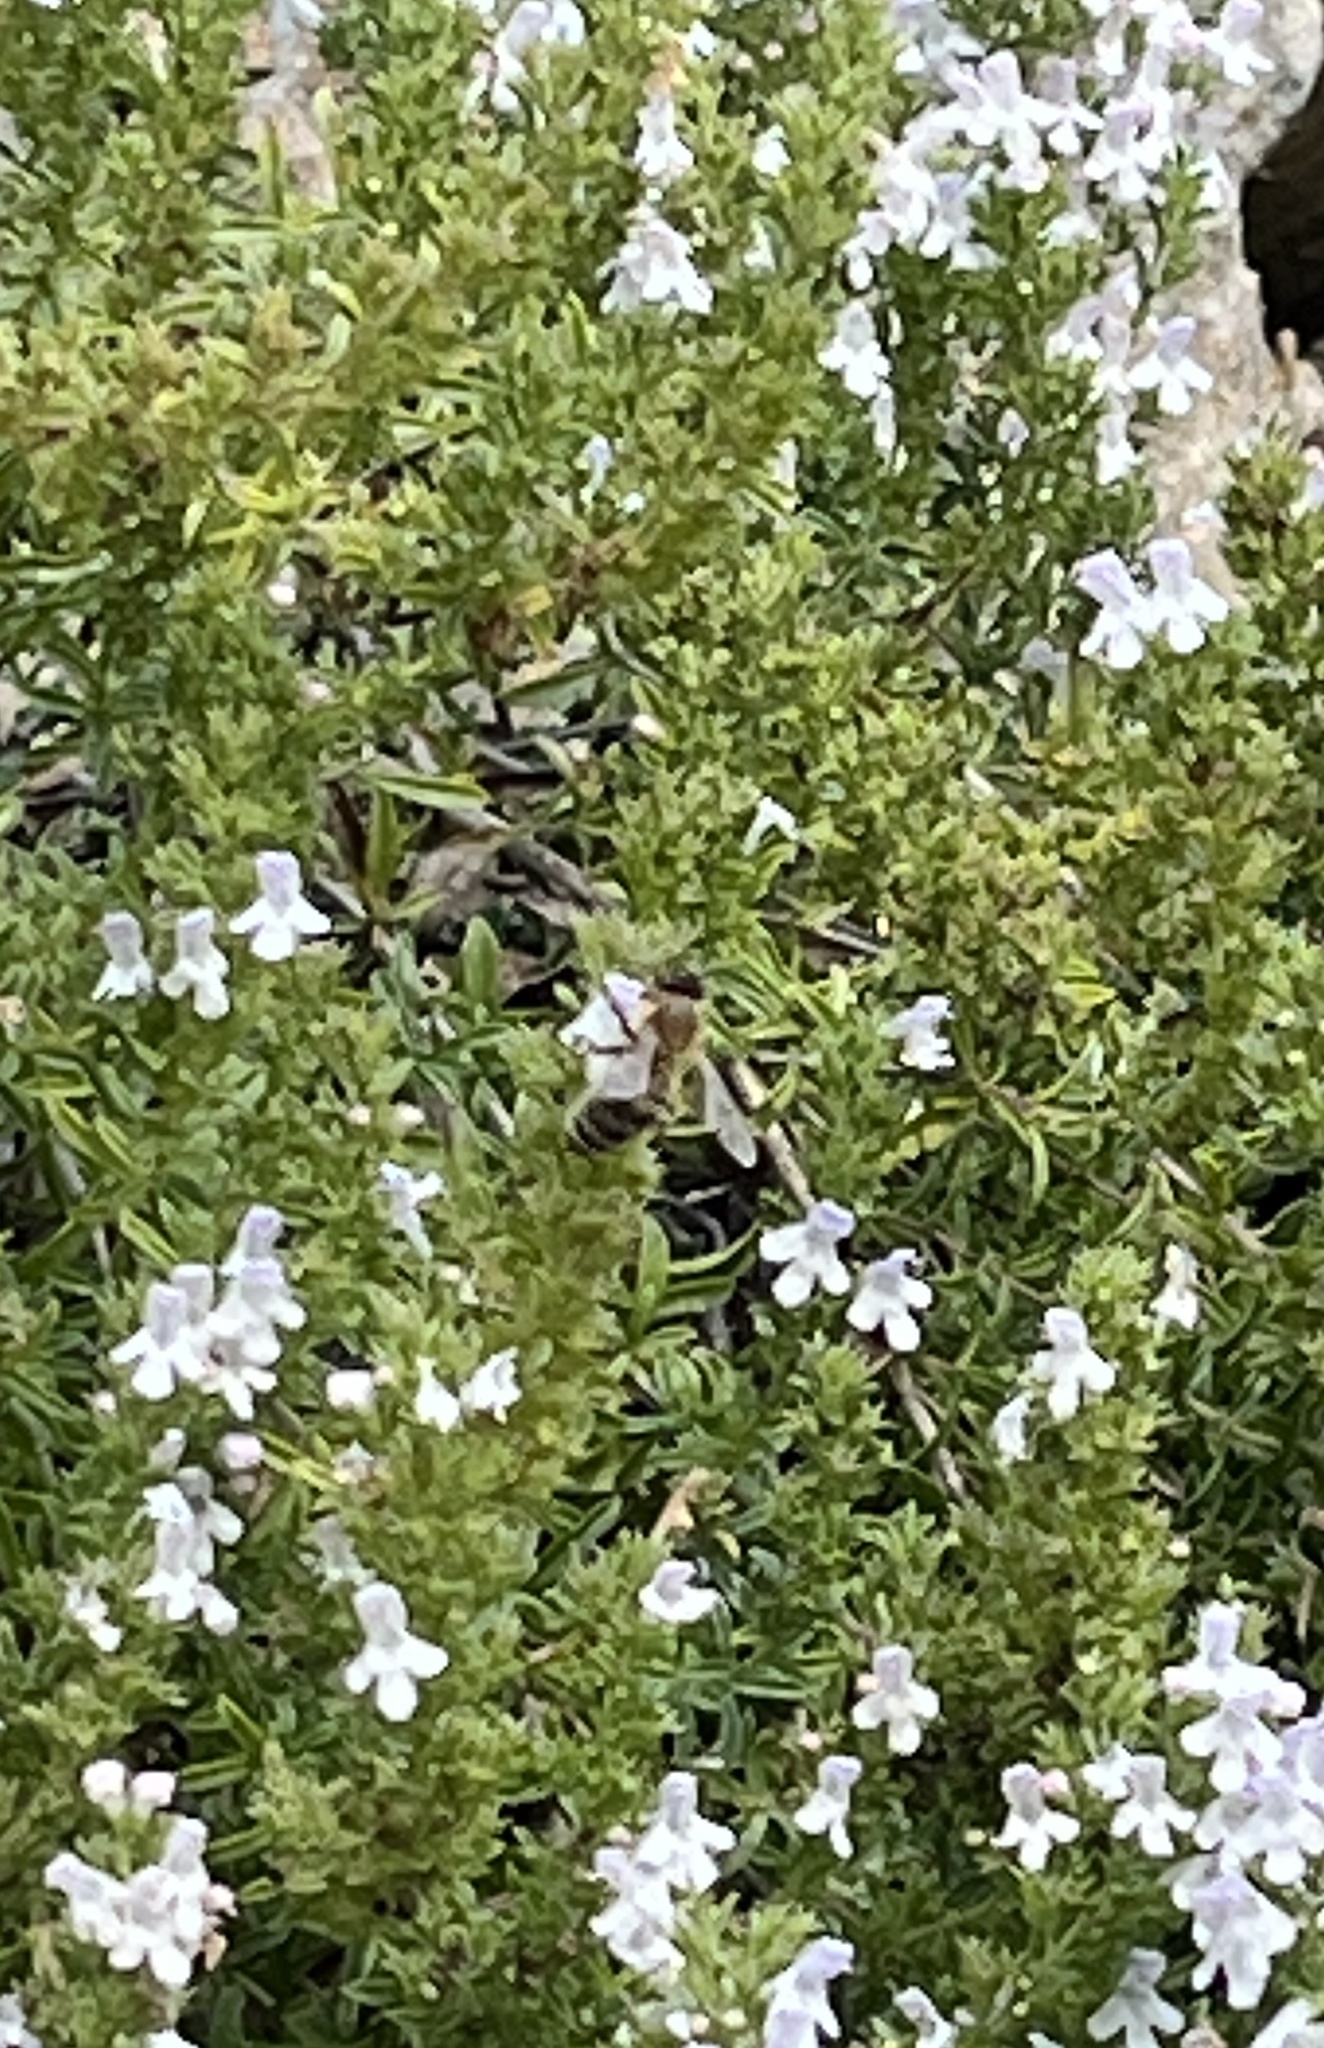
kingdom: Animalia
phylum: Arthropoda
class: Insecta
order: Hymenoptera
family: Apidae
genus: Apis
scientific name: Apis mellifera
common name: Honey bee
